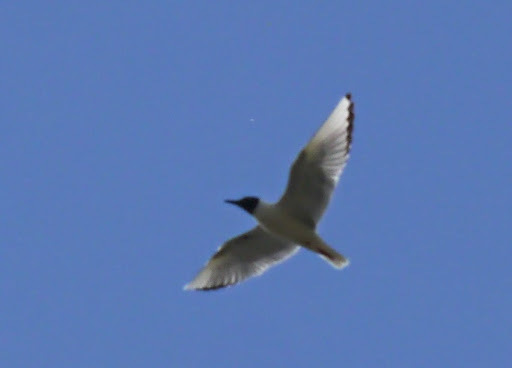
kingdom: Animalia
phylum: Chordata
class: Aves
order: Charadriiformes
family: Laridae
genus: Chroicocephalus
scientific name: Chroicocephalus philadelphia
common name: Bonaparte's gull
